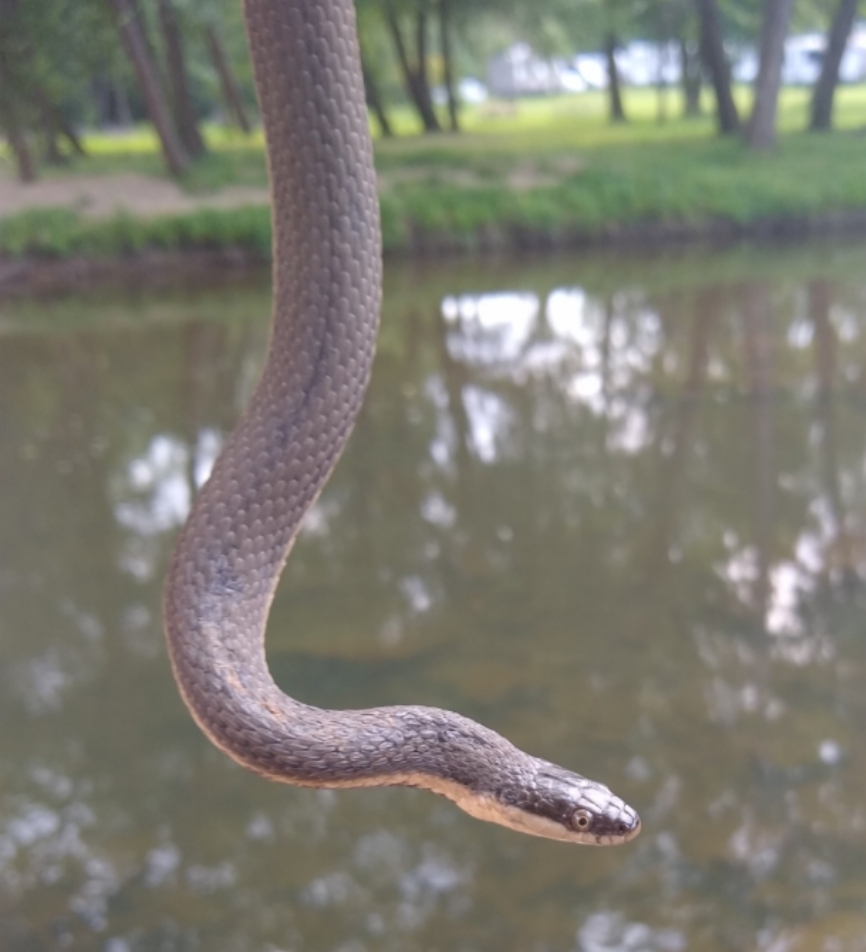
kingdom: Animalia
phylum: Chordata
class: Squamata
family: Colubridae
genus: Regina
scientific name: Regina septemvittata
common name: Queen snake
